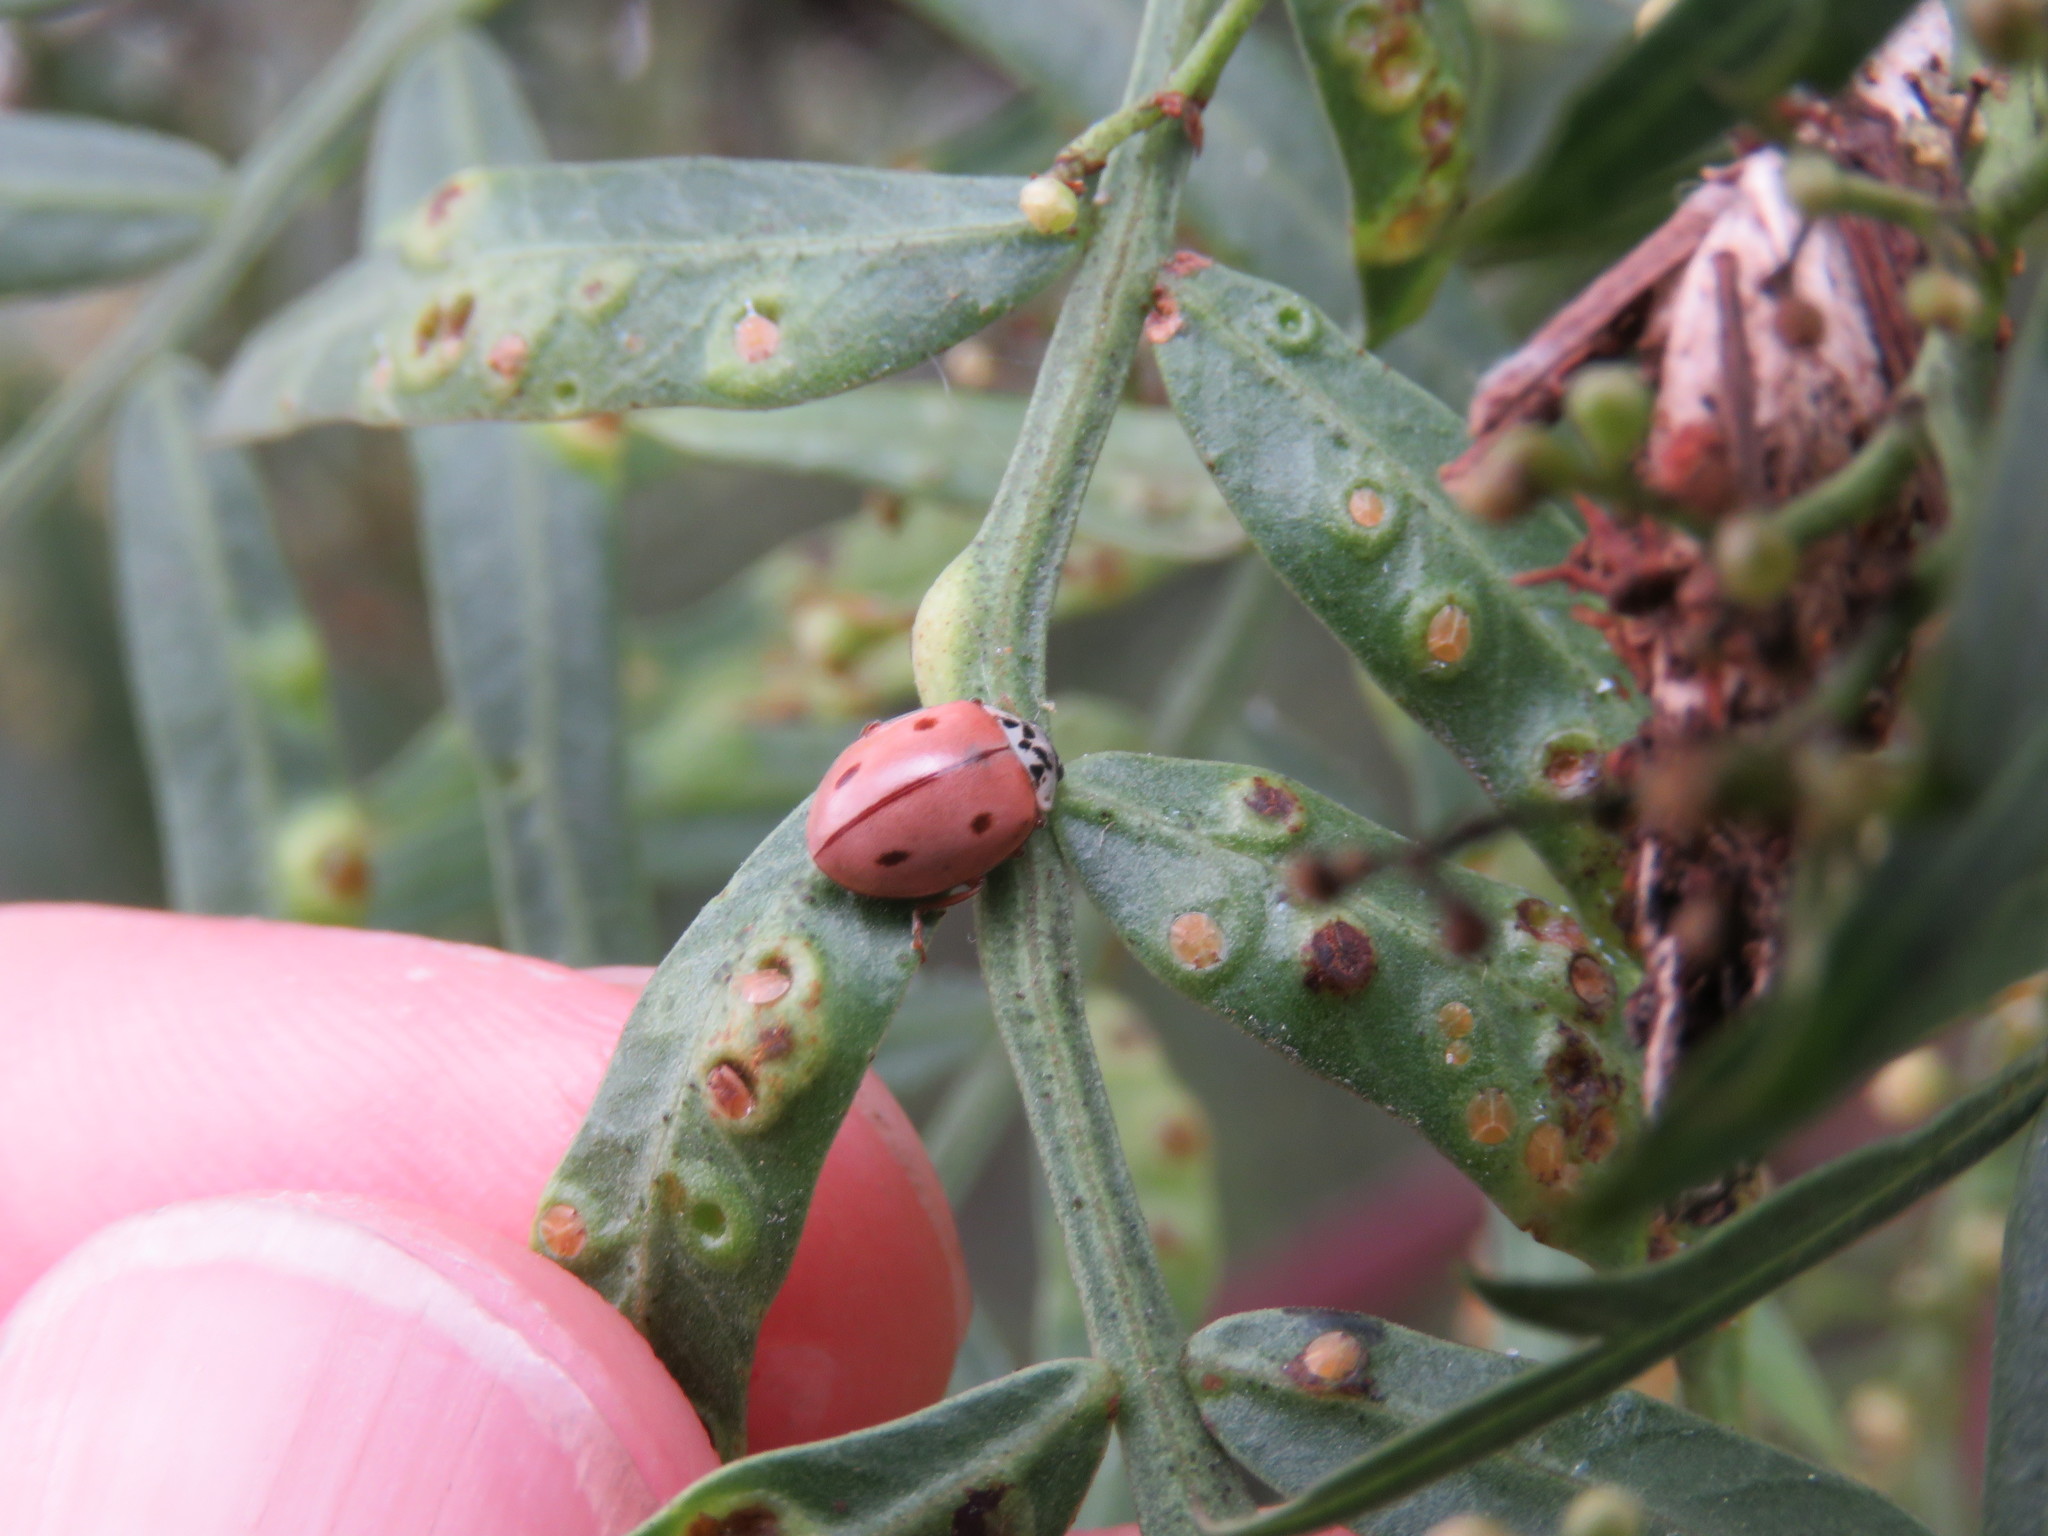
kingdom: Animalia
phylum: Arthropoda
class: Insecta
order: Coleoptera
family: Coccinellidae
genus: Mulsantina
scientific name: Mulsantina
